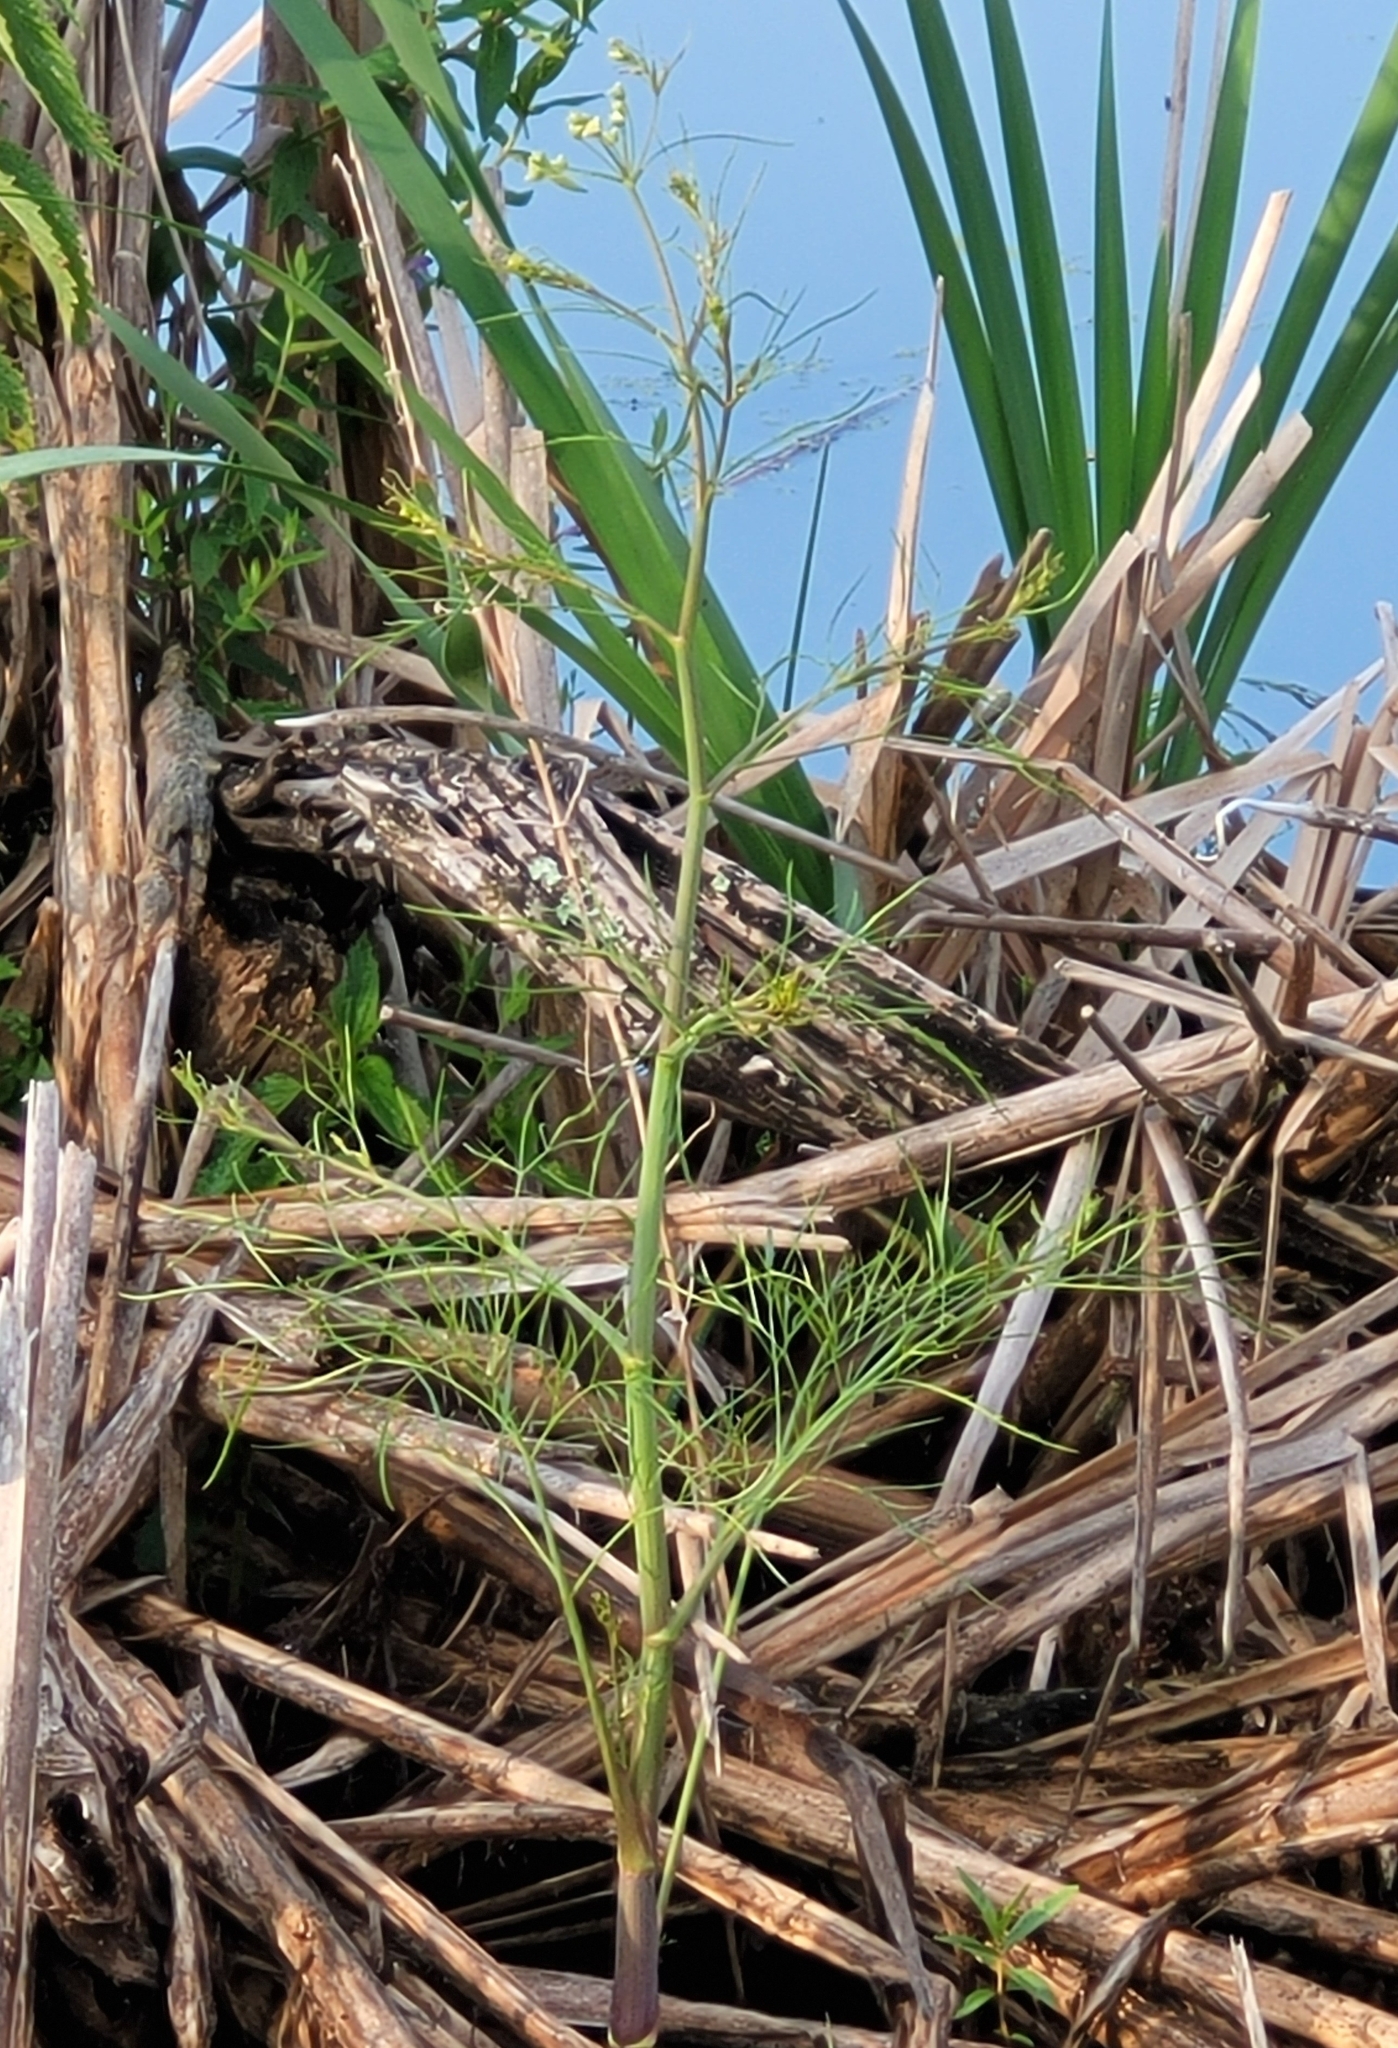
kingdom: Plantae
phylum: Tracheophyta
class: Magnoliopsida
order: Apiales
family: Apiaceae
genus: Cicuta
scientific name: Cicuta bulbifera
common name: Bulb-bearing water-hemlock
